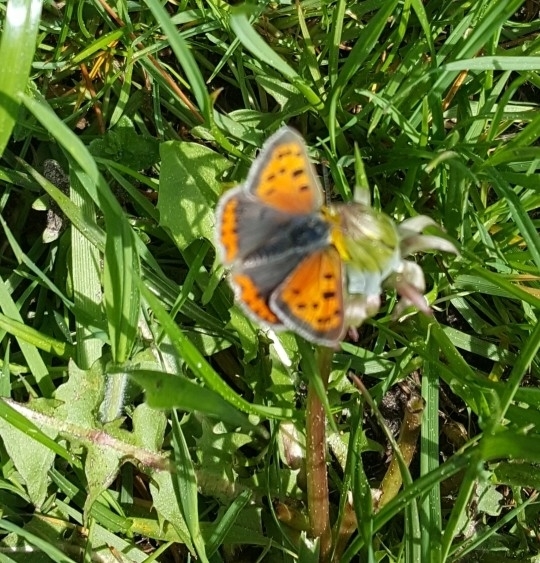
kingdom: Animalia
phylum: Arthropoda
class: Insecta
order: Lepidoptera
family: Lycaenidae
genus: Lycaena
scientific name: Lycaena phlaeas
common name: Small copper
